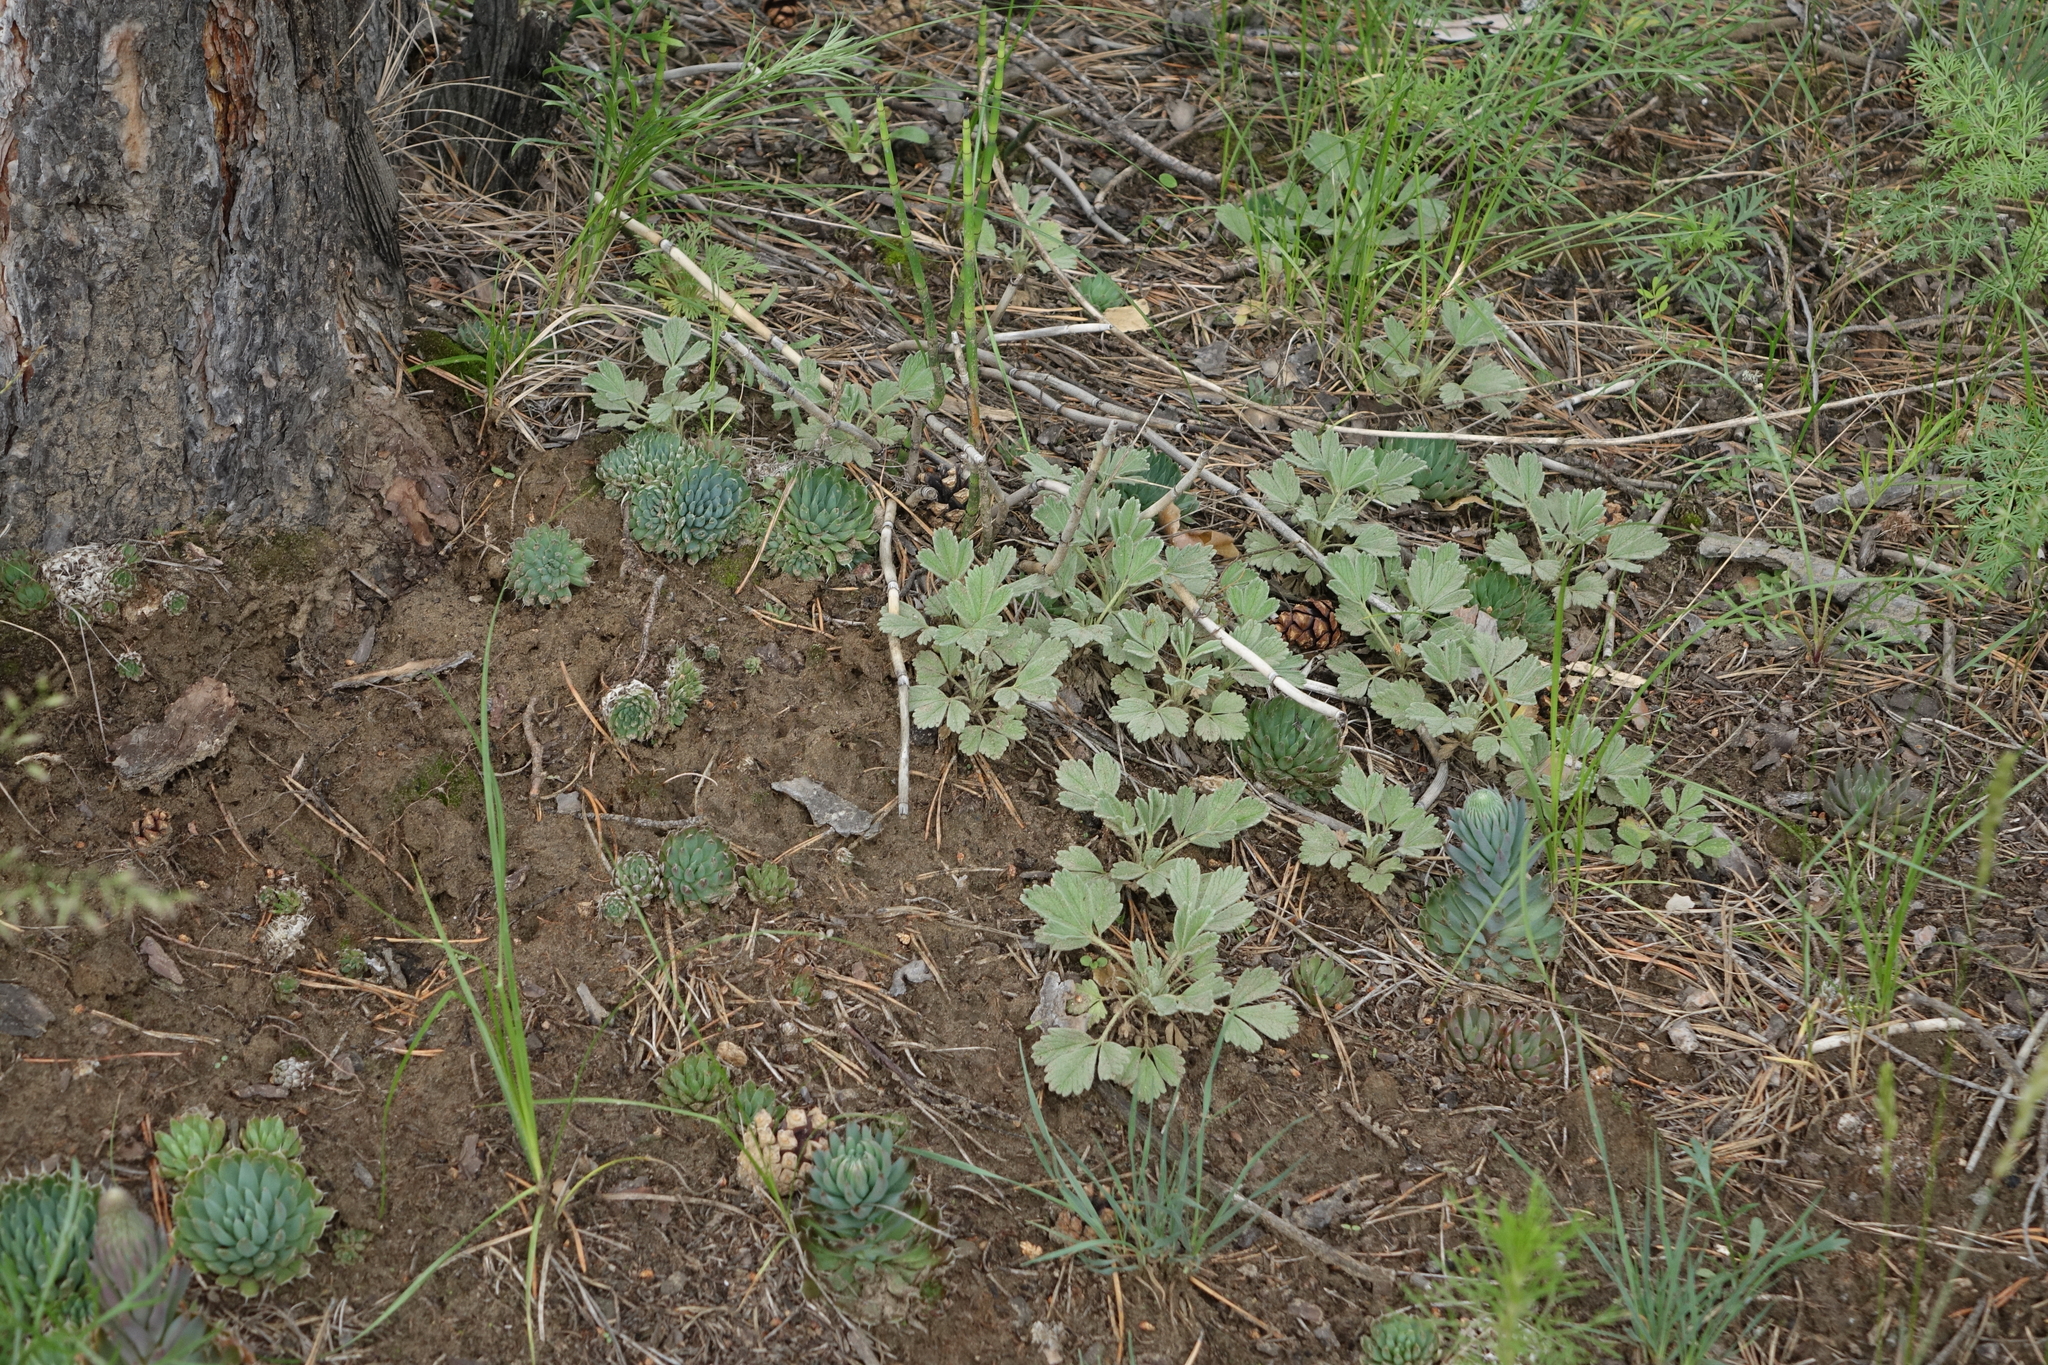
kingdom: Plantae
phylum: Tracheophyta
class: Magnoliopsida
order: Rosales
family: Rosaceae
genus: Potentilla
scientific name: Potentilla acaulis
